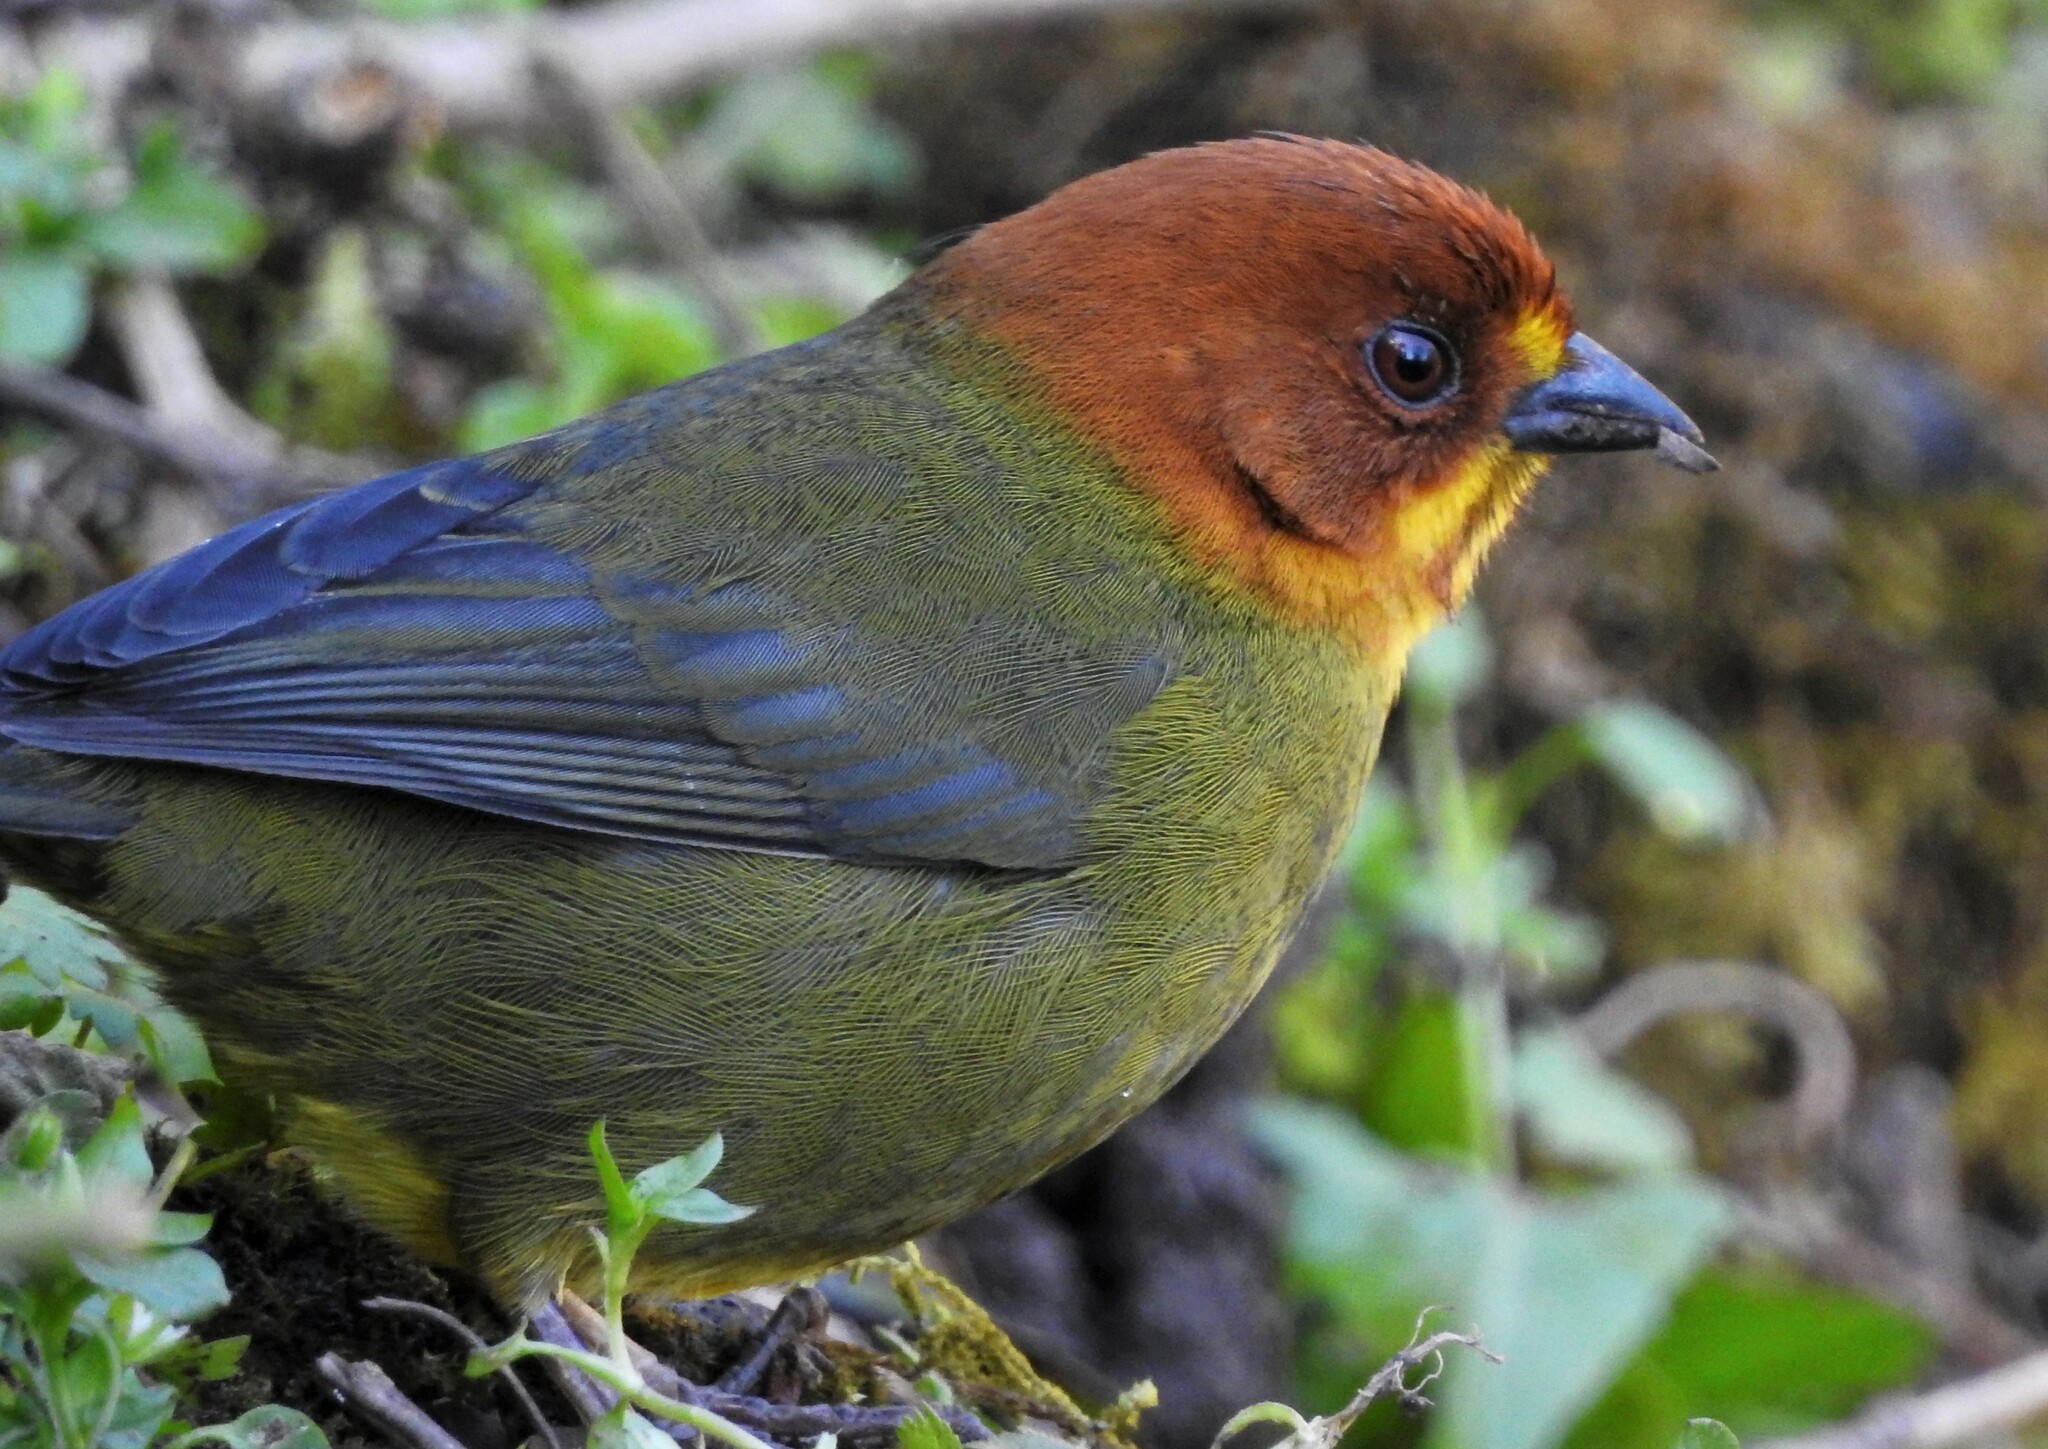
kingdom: Animalia
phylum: Chordata
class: Aves
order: Passeriformes
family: Passerellidae
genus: Atlapetes
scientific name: Atlapetes fulviceps
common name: Fulvous-headed brushfinch
